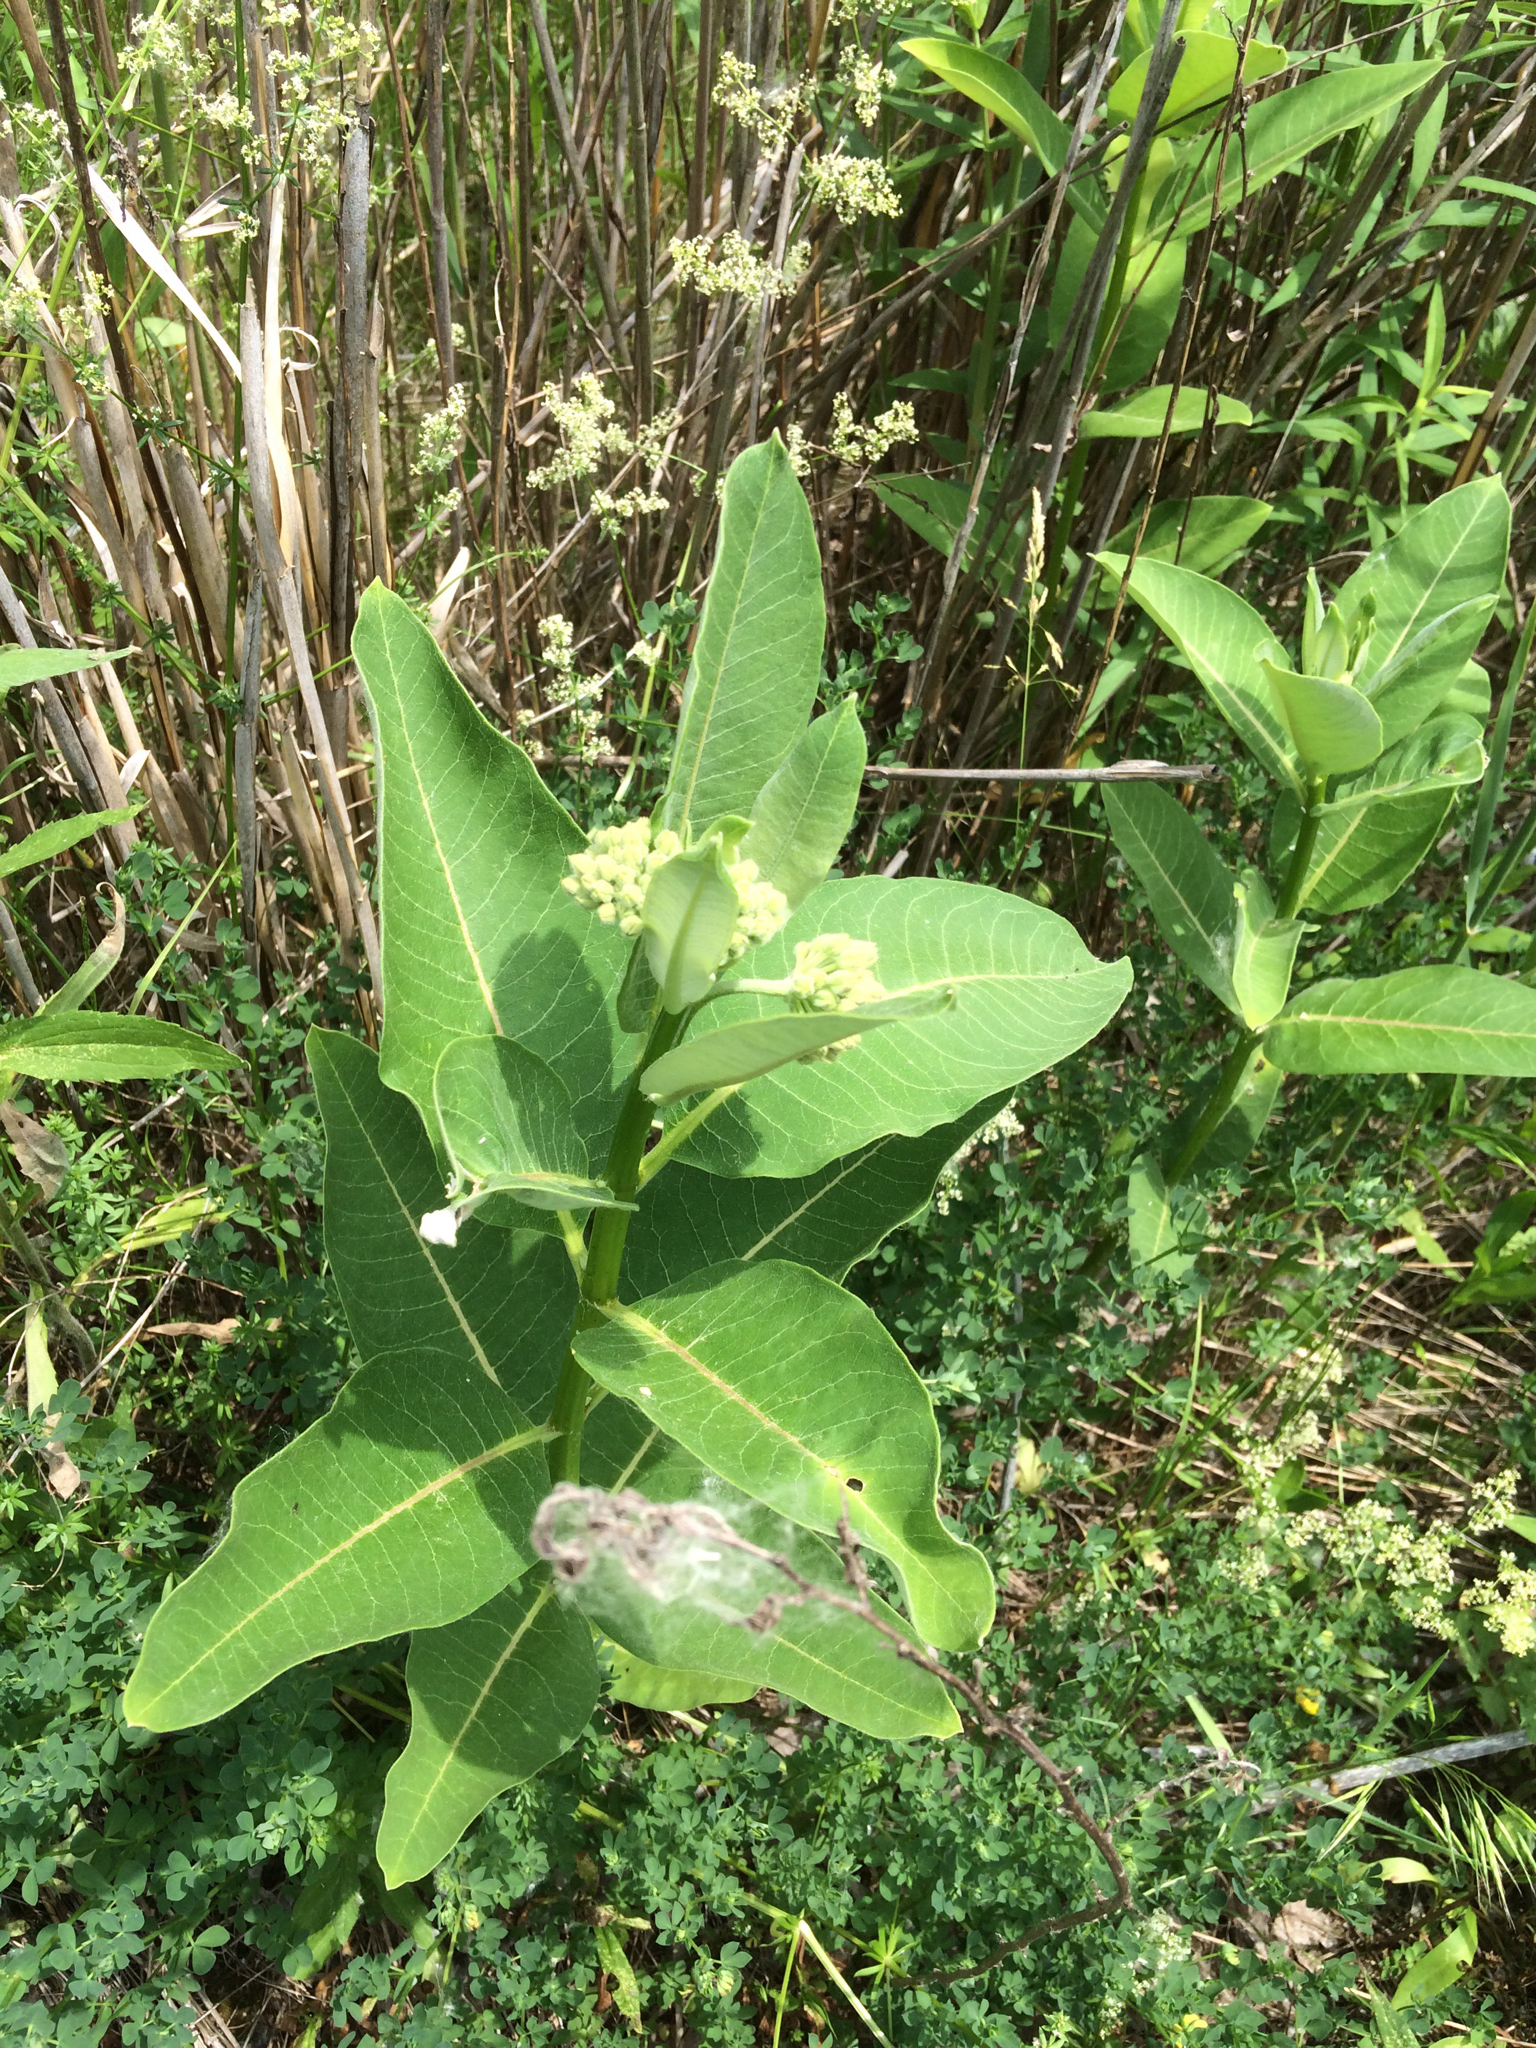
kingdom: Plantae
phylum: Tracheophyta
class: Magnoliopsida
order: Gentianales
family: Apocynaceae
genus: Asclepias
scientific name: Asclepias syriaca
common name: Common milkweed
